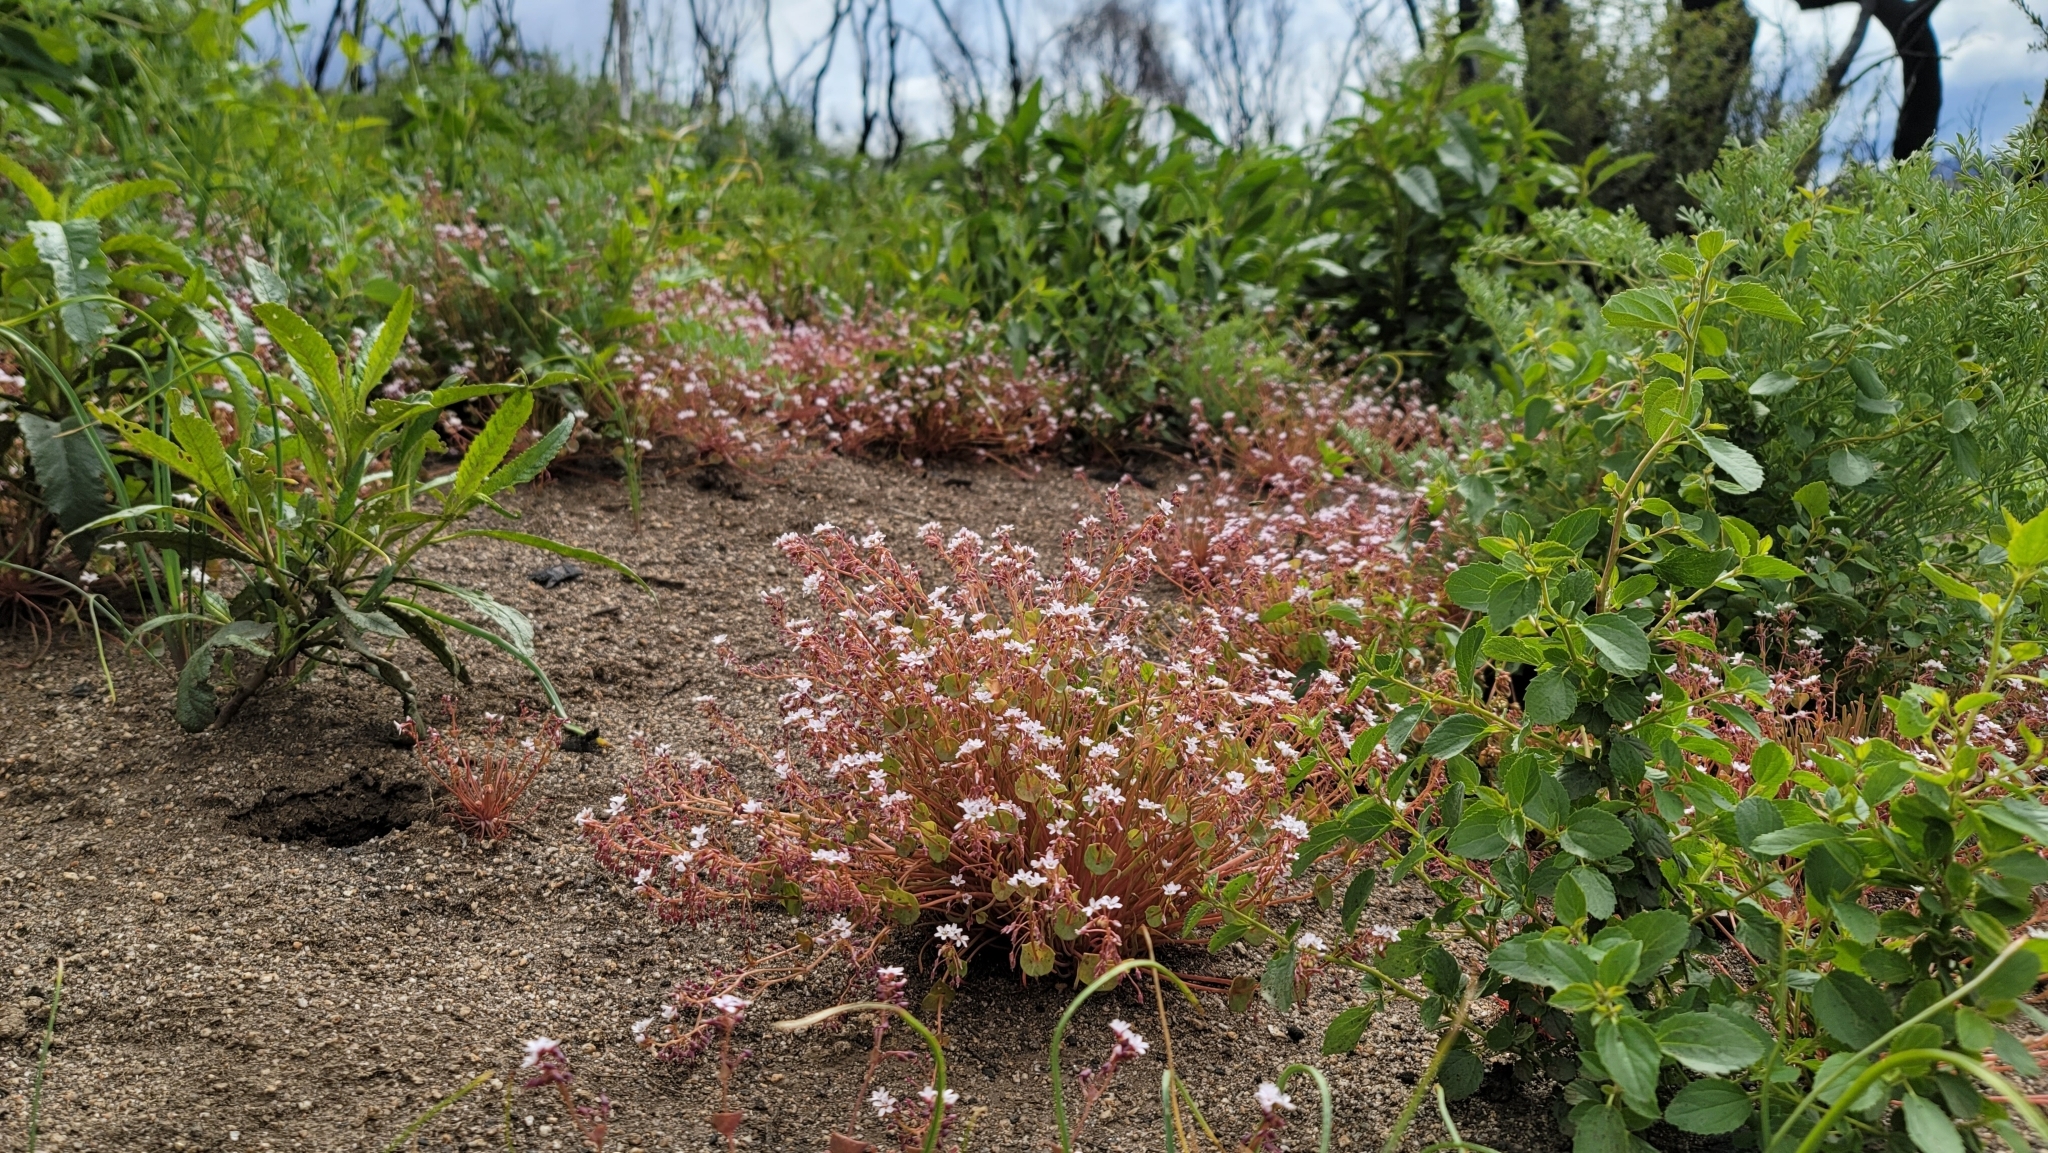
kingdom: Plantae
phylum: Tracheophyta
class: Magnoliopsida
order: Caryophyllales
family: Montiaceae
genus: Claytonia
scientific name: Claytonia parviflora
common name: Indian-lettuce
